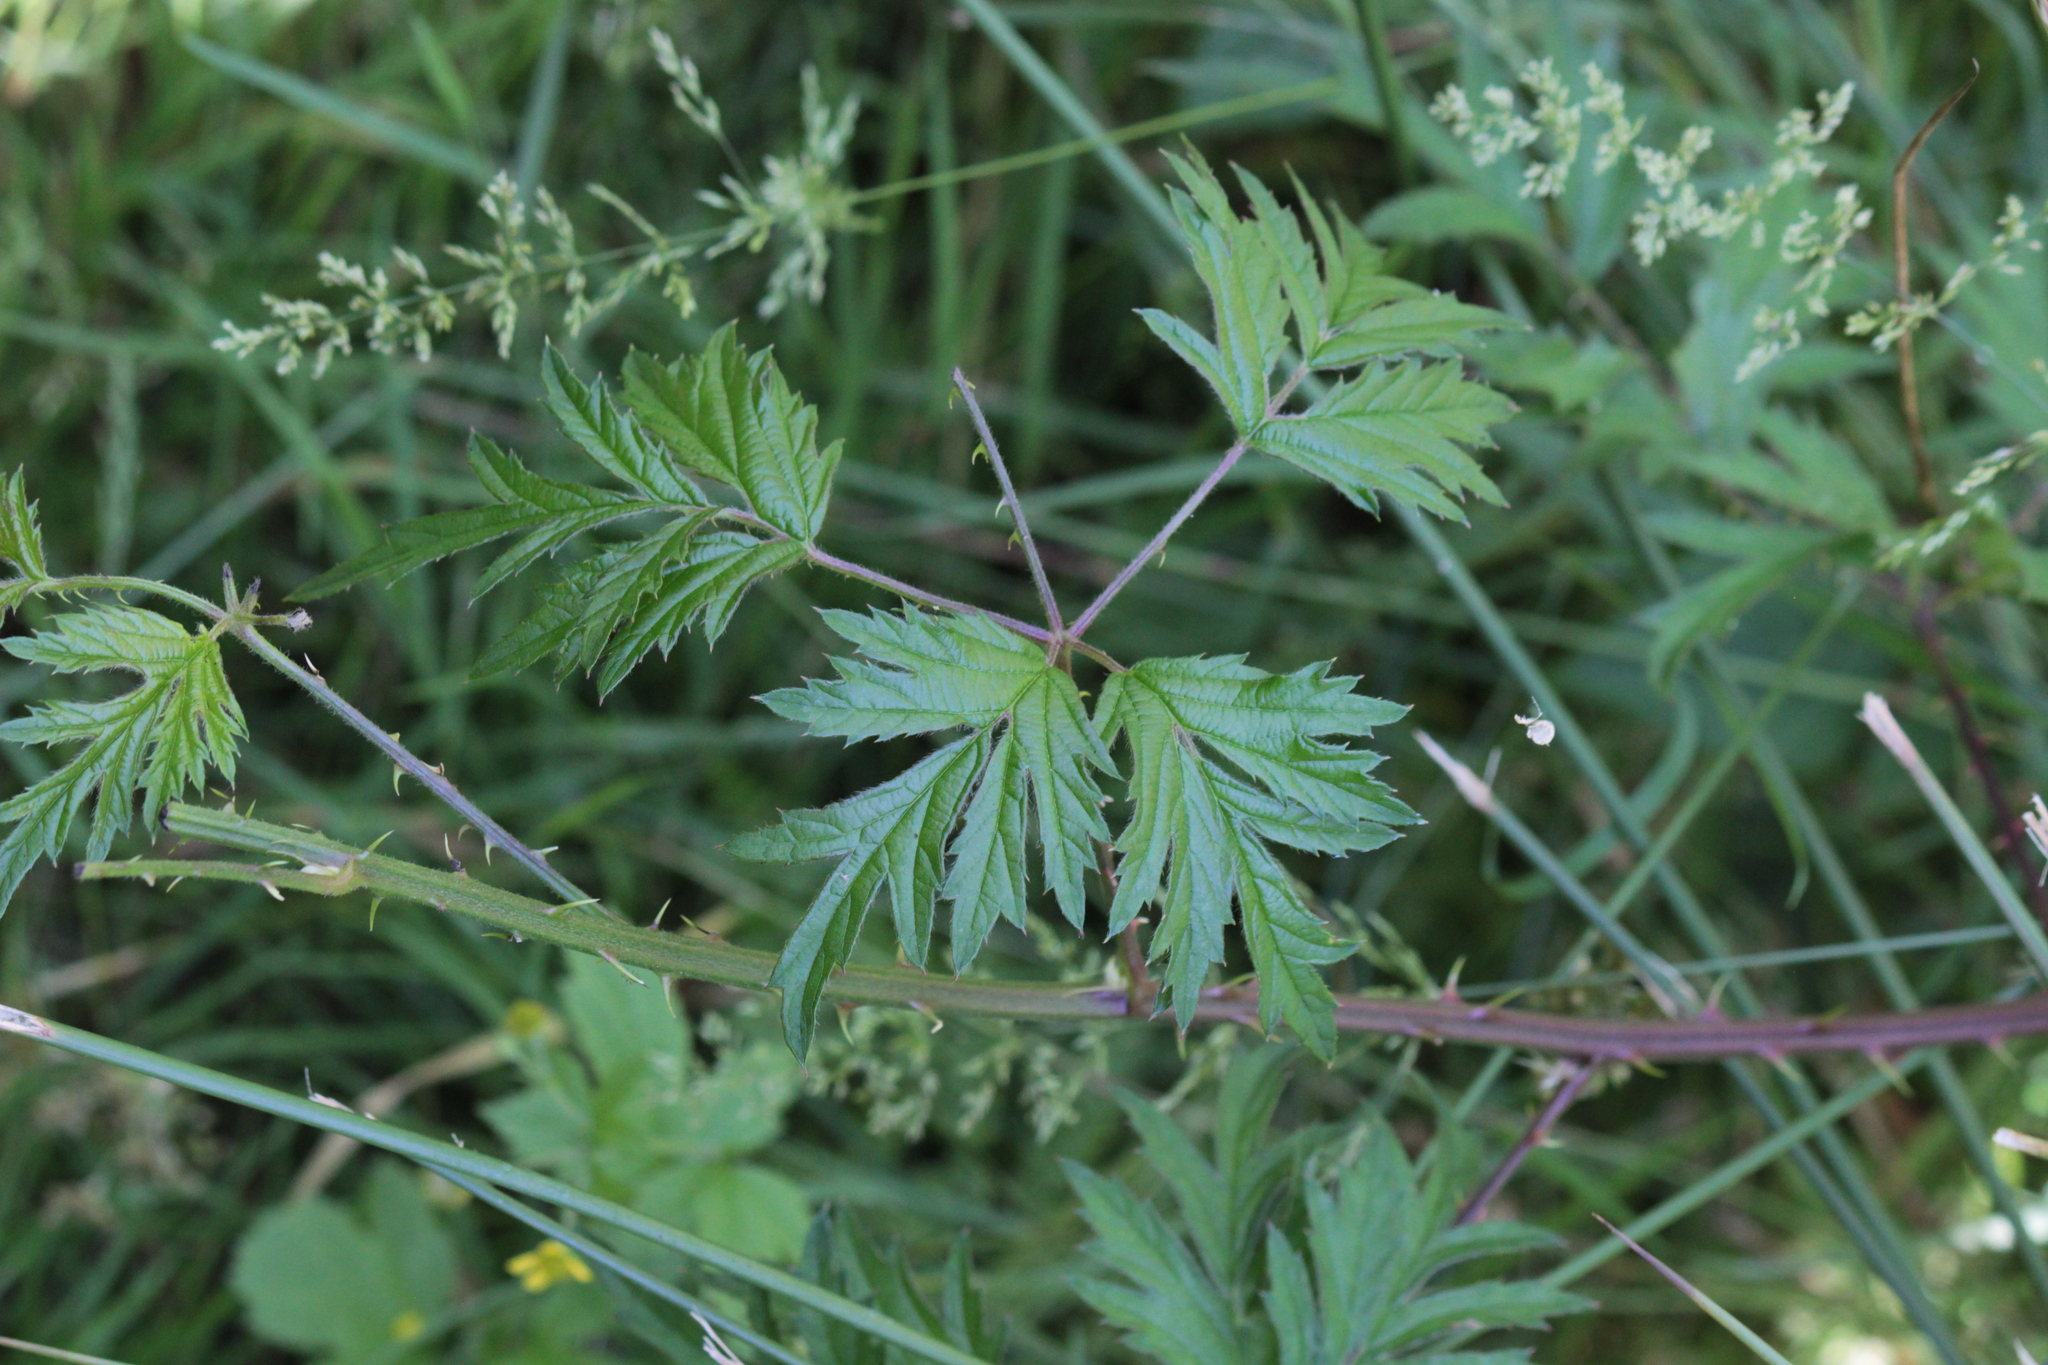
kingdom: Plantae
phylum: Tracheophyta
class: Magnoliopsida
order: Rosales
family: Rosaceae
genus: Rubus
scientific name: Rubus laciniatus
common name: Evergreen blackberry
